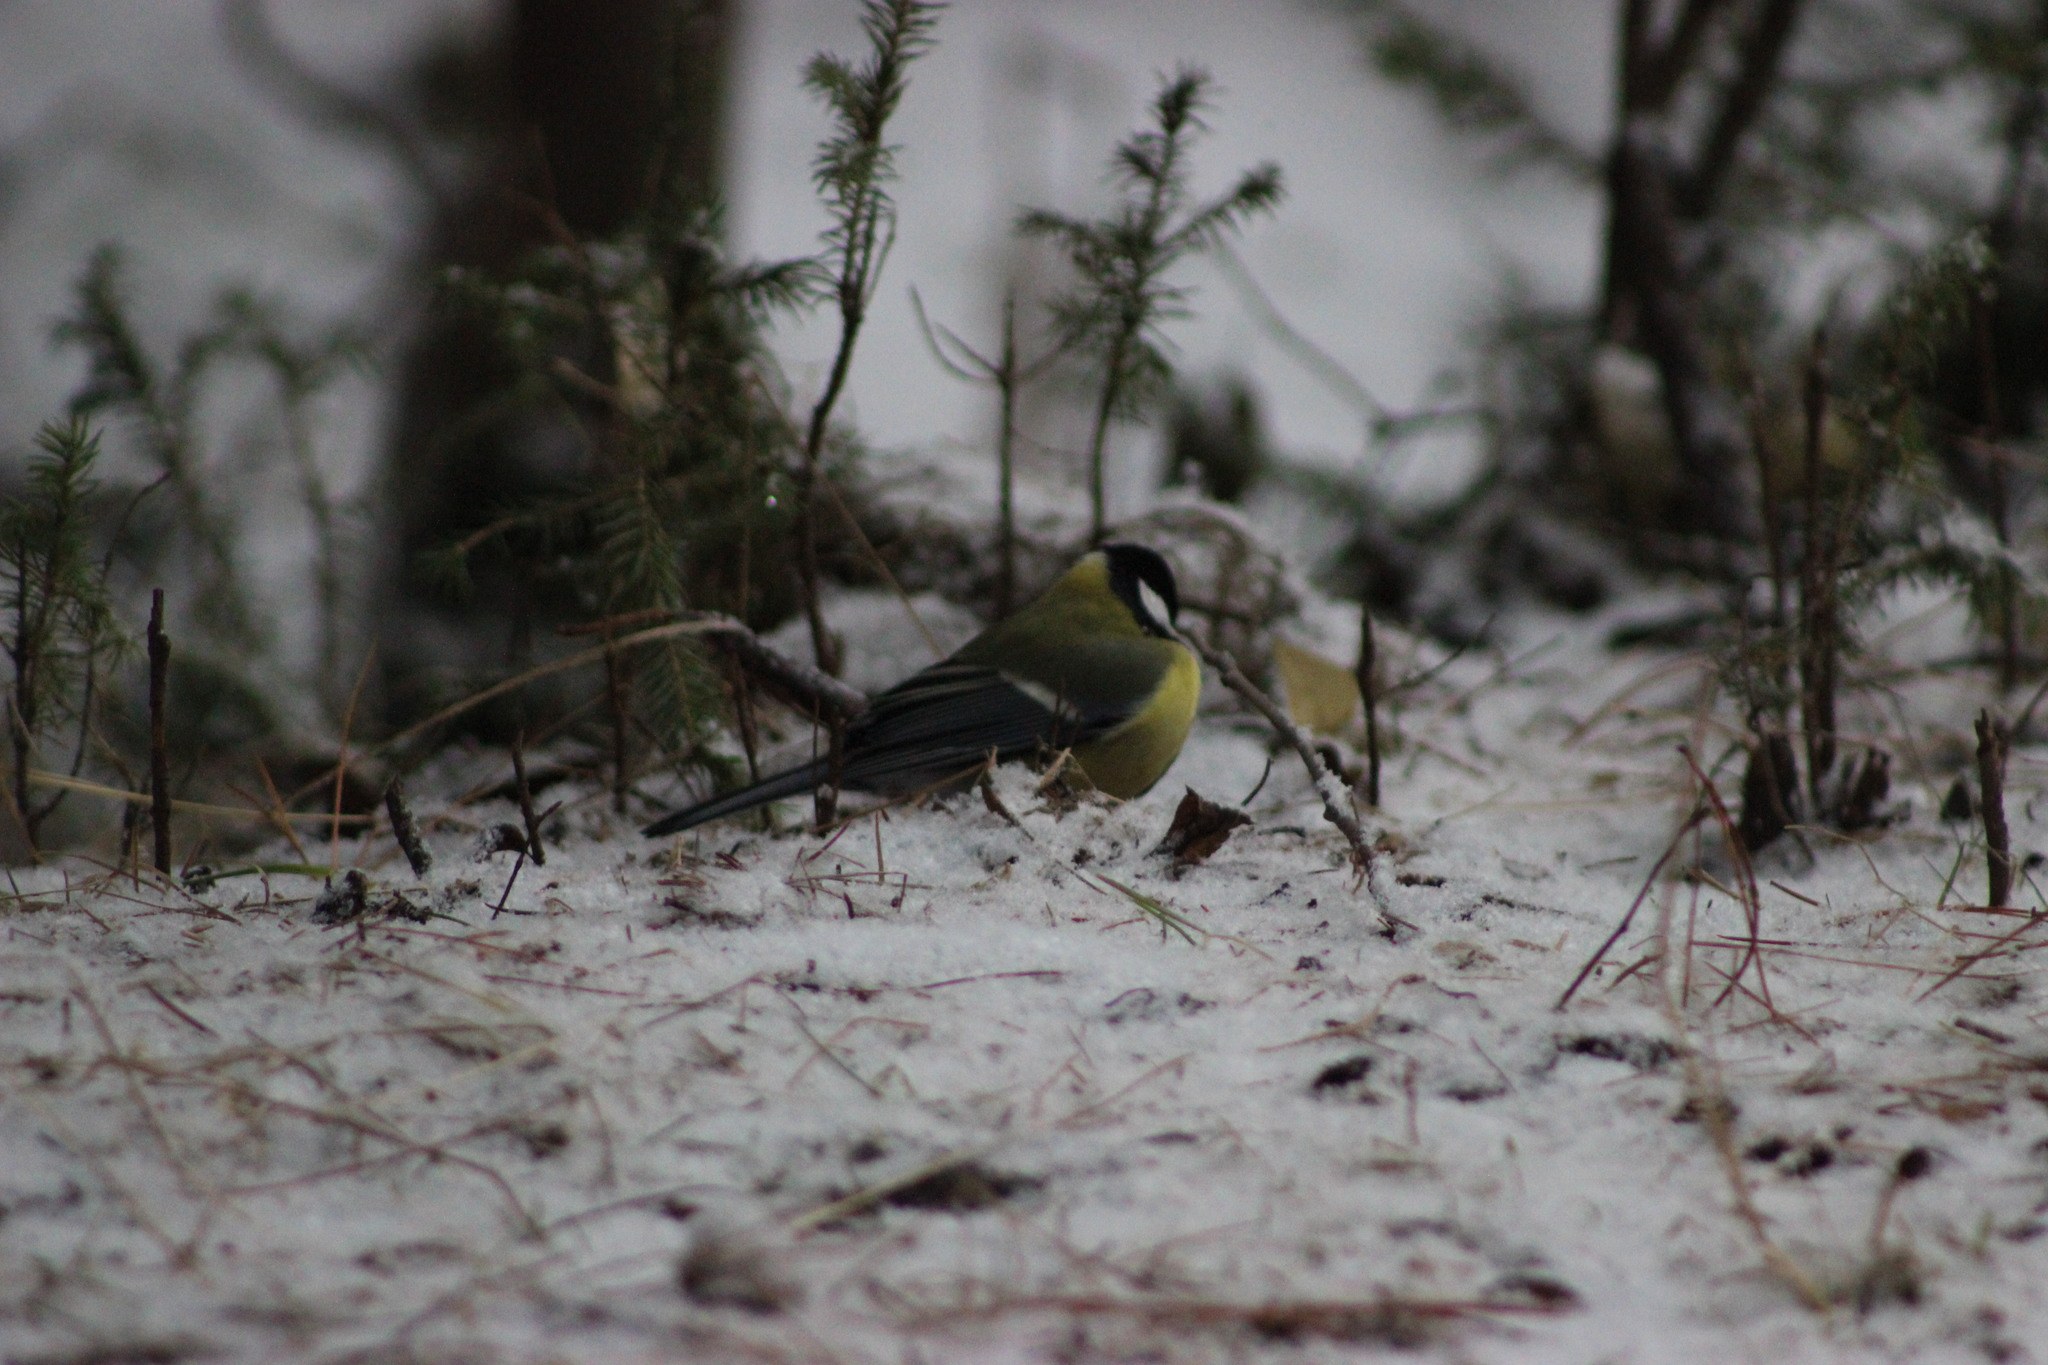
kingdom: Animalia
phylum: Chordata
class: Aves
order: Passeriformes
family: Paridae
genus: Parus
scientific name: Parus major
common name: Great tit
